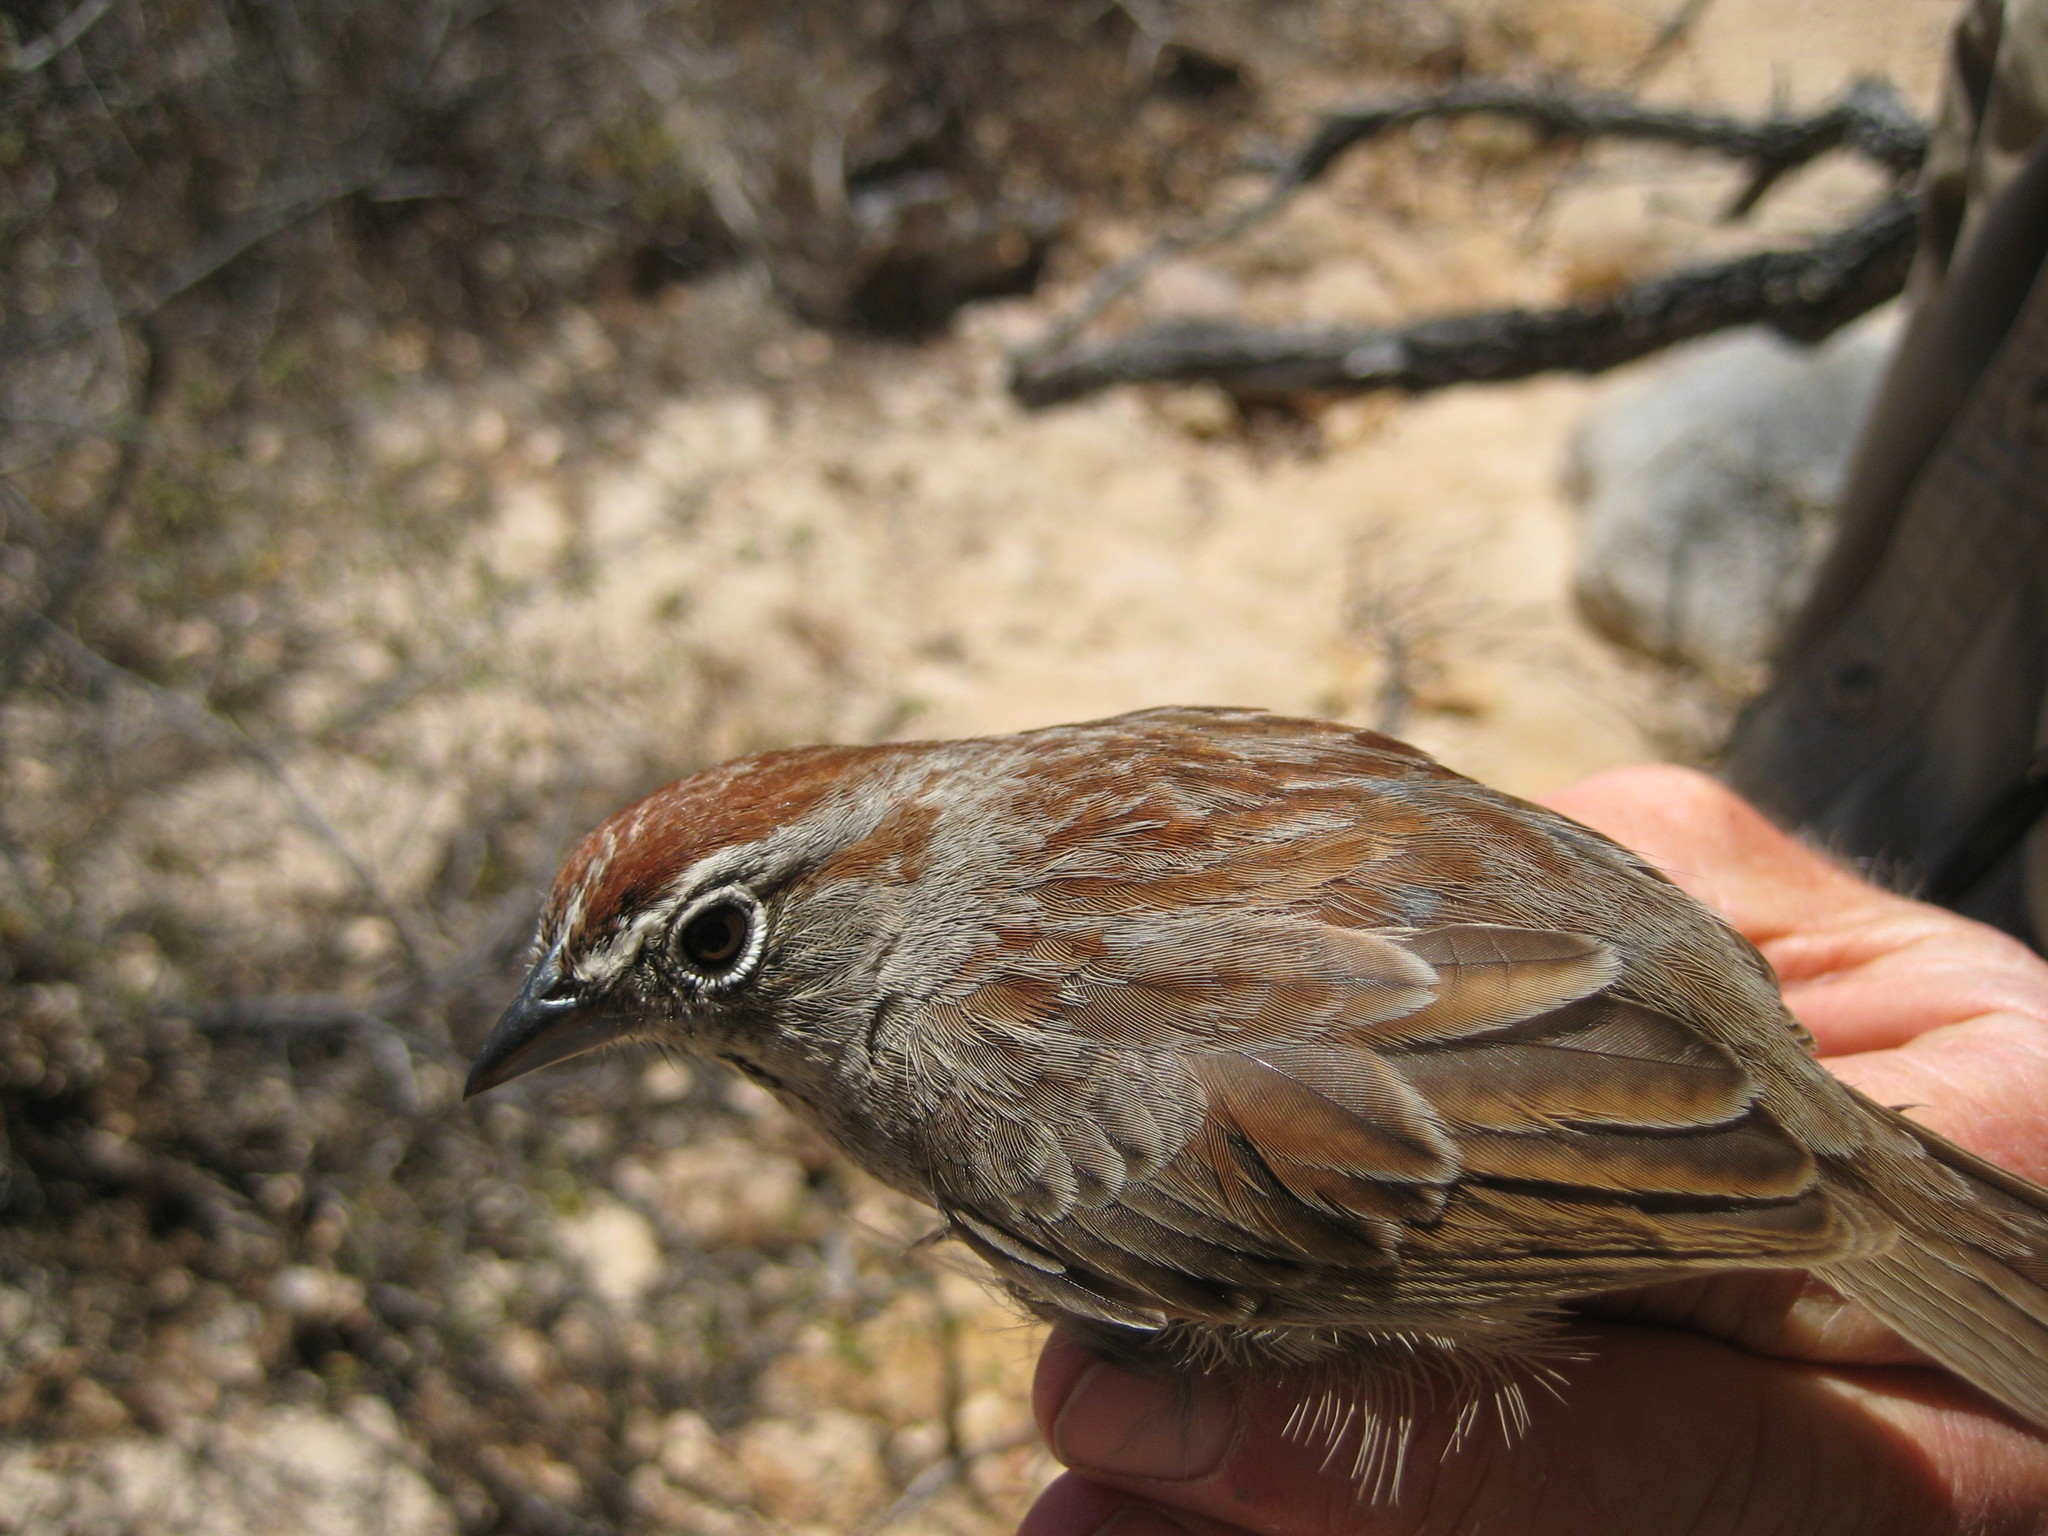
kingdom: Animalia
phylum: Chordata
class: Aves
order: Passeriformes
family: Passerellidae
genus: Aimophila
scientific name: Aimophila ruficeps
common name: Rufous-crowned sparrow
